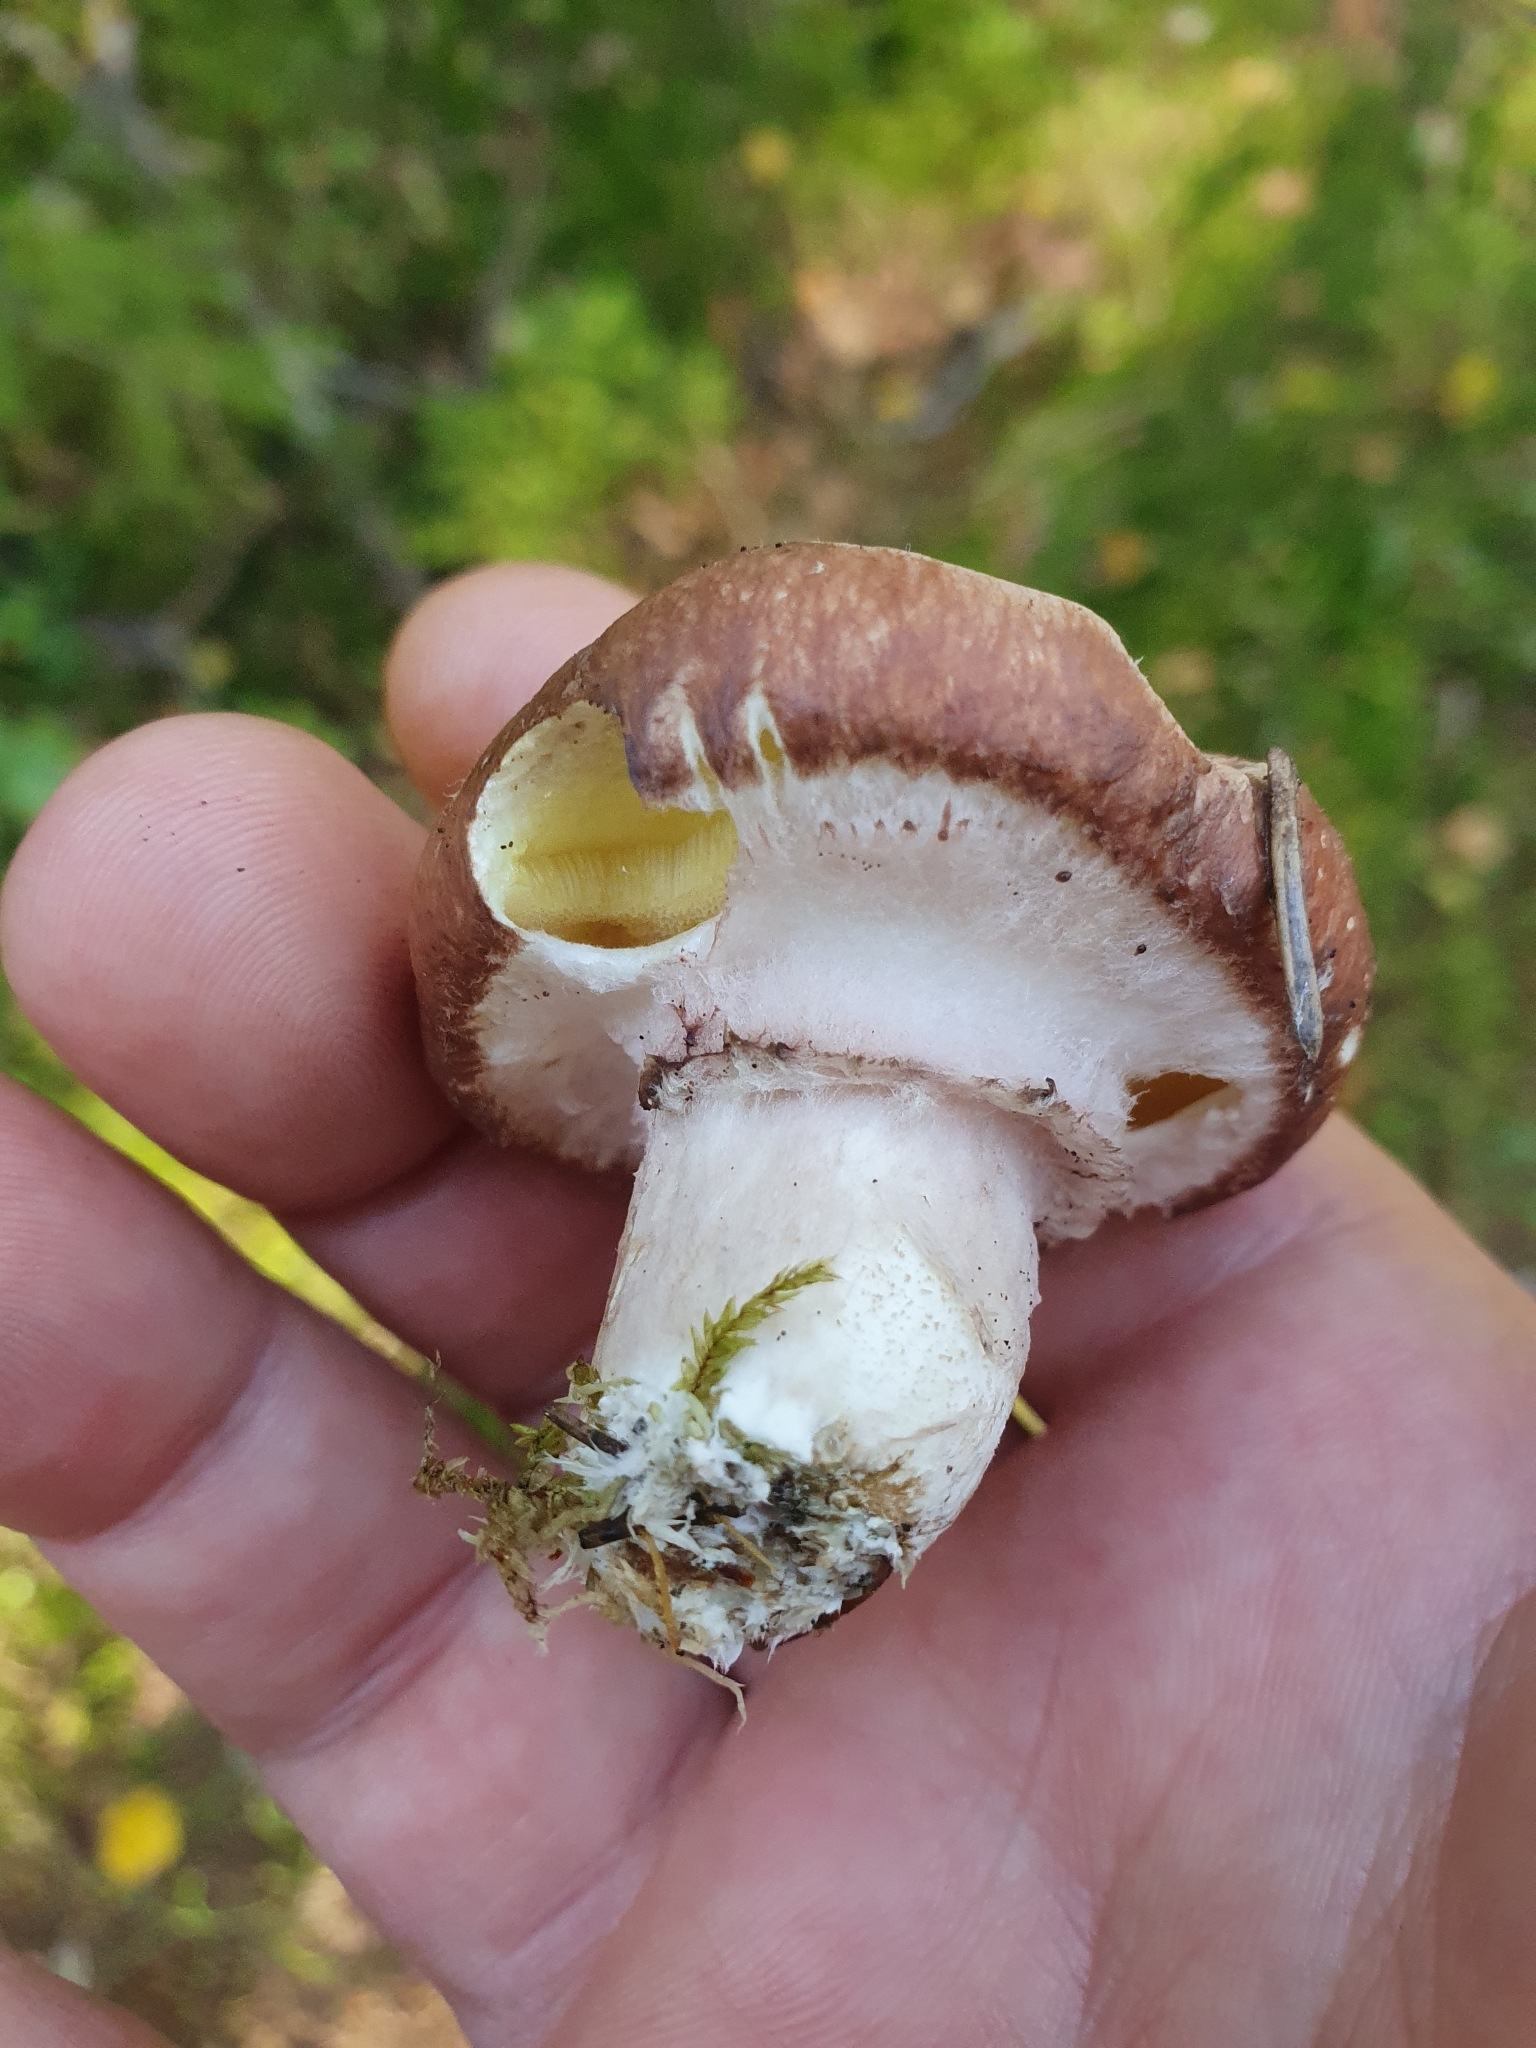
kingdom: Fungi
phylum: Basidiomycota
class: Agaricomycetes
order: Boletales
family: Suillaceae
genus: Suillus
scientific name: Suillus luteus
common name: Slippery jack
